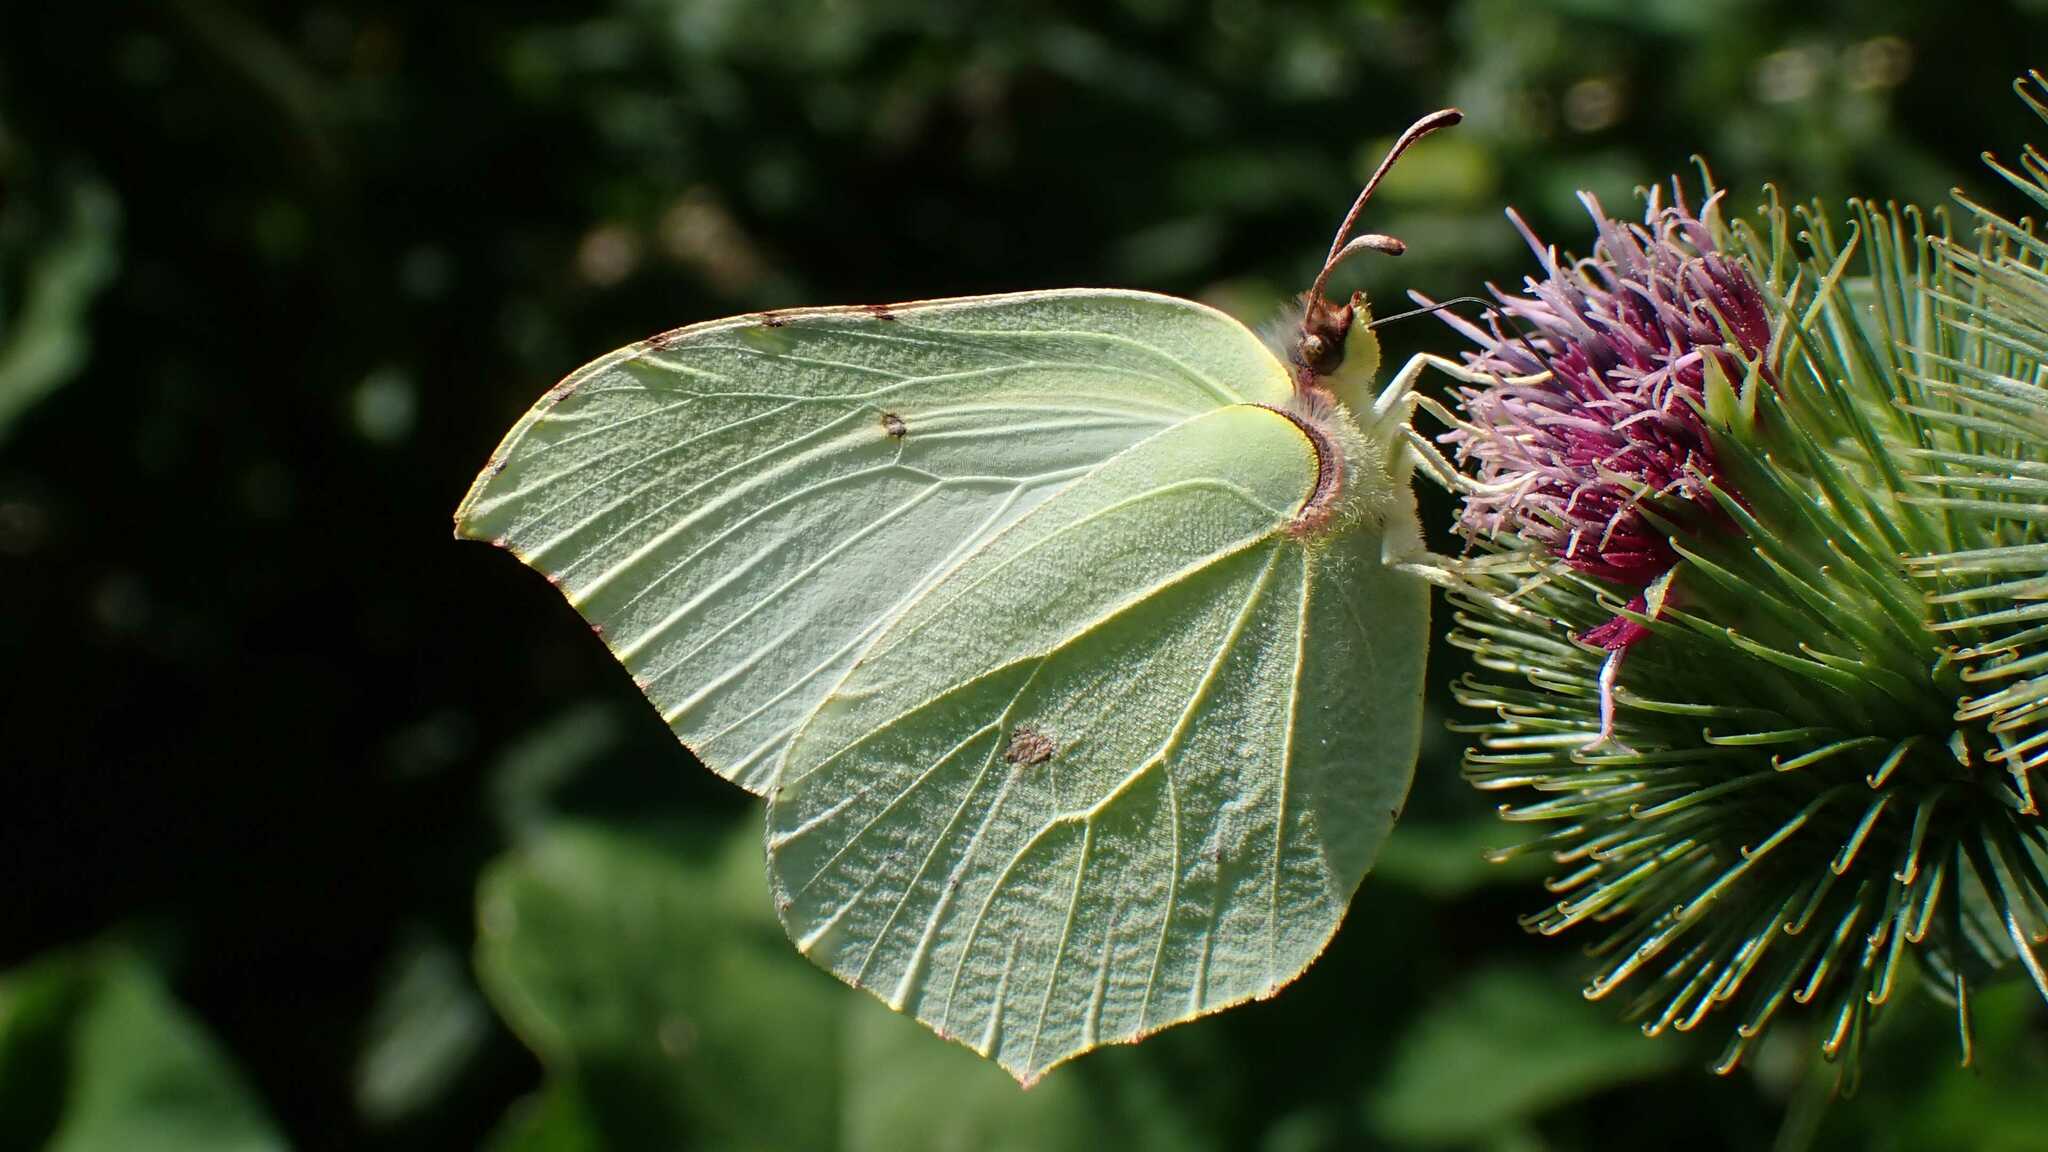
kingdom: Animalia
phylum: Arthropoda
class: Insecta
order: Lepidoptera
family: Pieridae
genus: Gonepteryx
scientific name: Gonepteryx rhamni
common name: Brimstone
